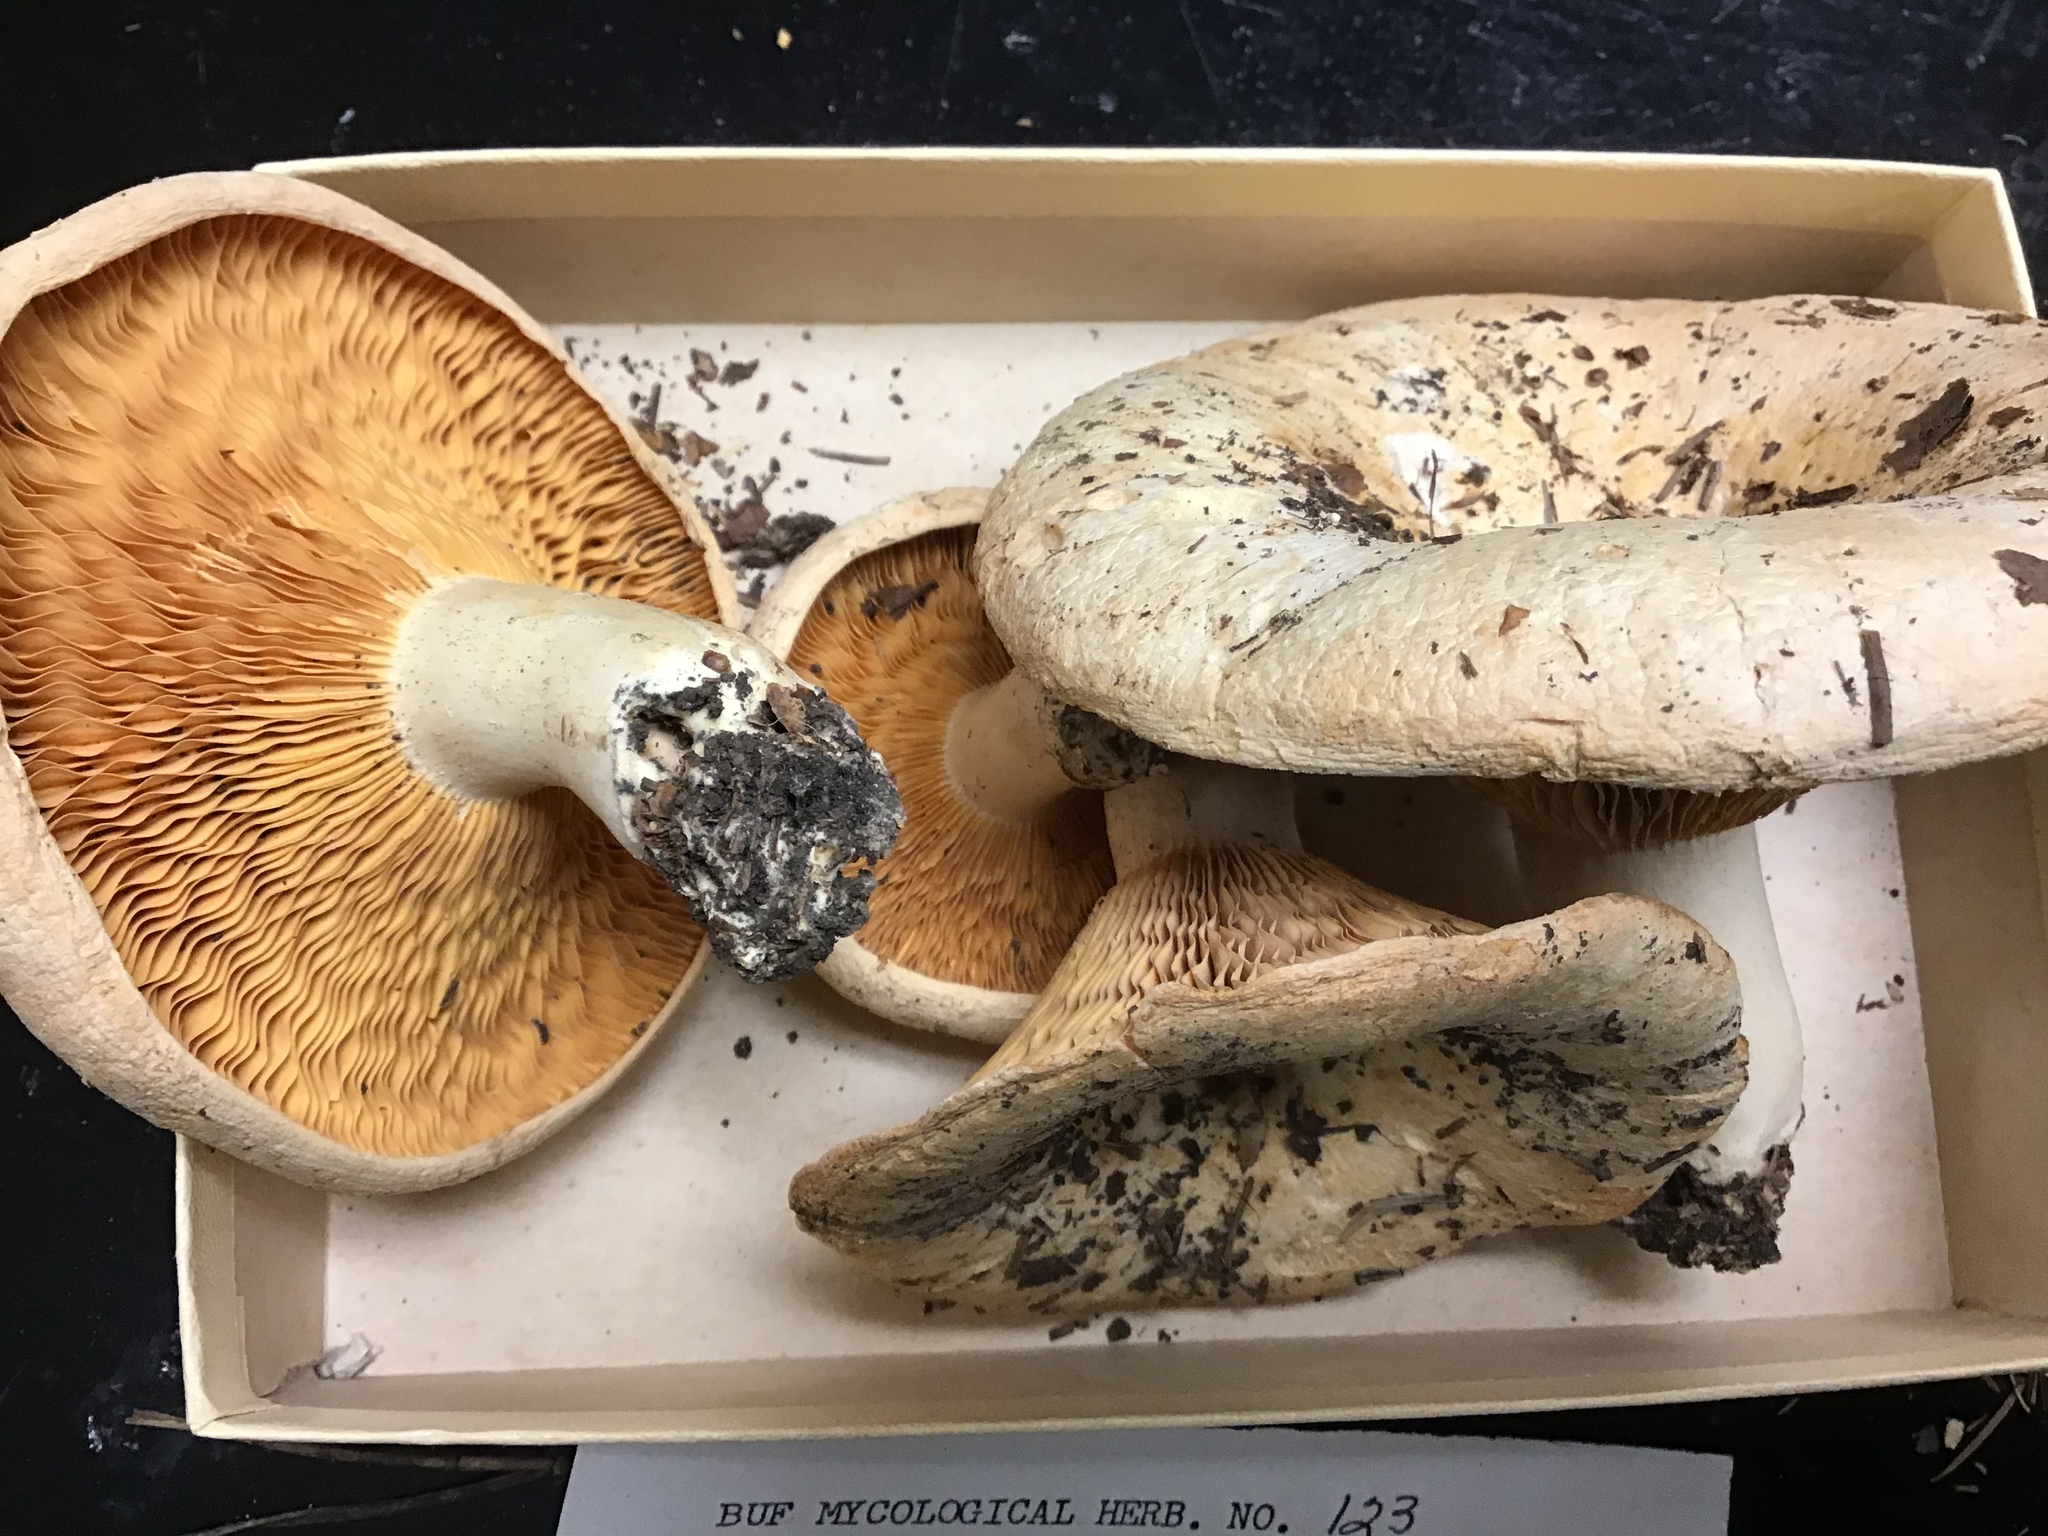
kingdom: Fungi
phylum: Basidiomycota
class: Agaricomycetes
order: Russulales
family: Russulaceae
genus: Russula
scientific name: Russula delica
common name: Milk white brittlegill
